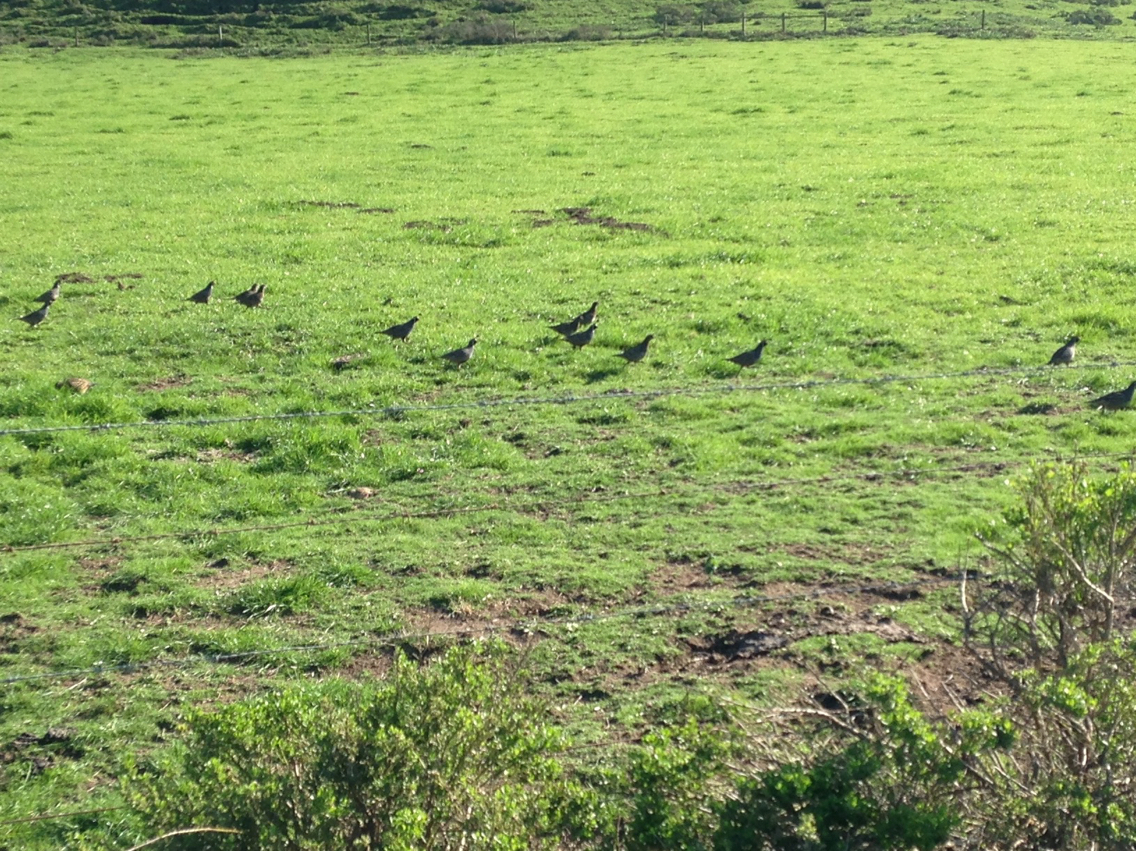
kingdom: Animalia
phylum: Chordata
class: Aves
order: Galliformes
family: Odontophoridae
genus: Callipepla
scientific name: Callipepla californica
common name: California quail
